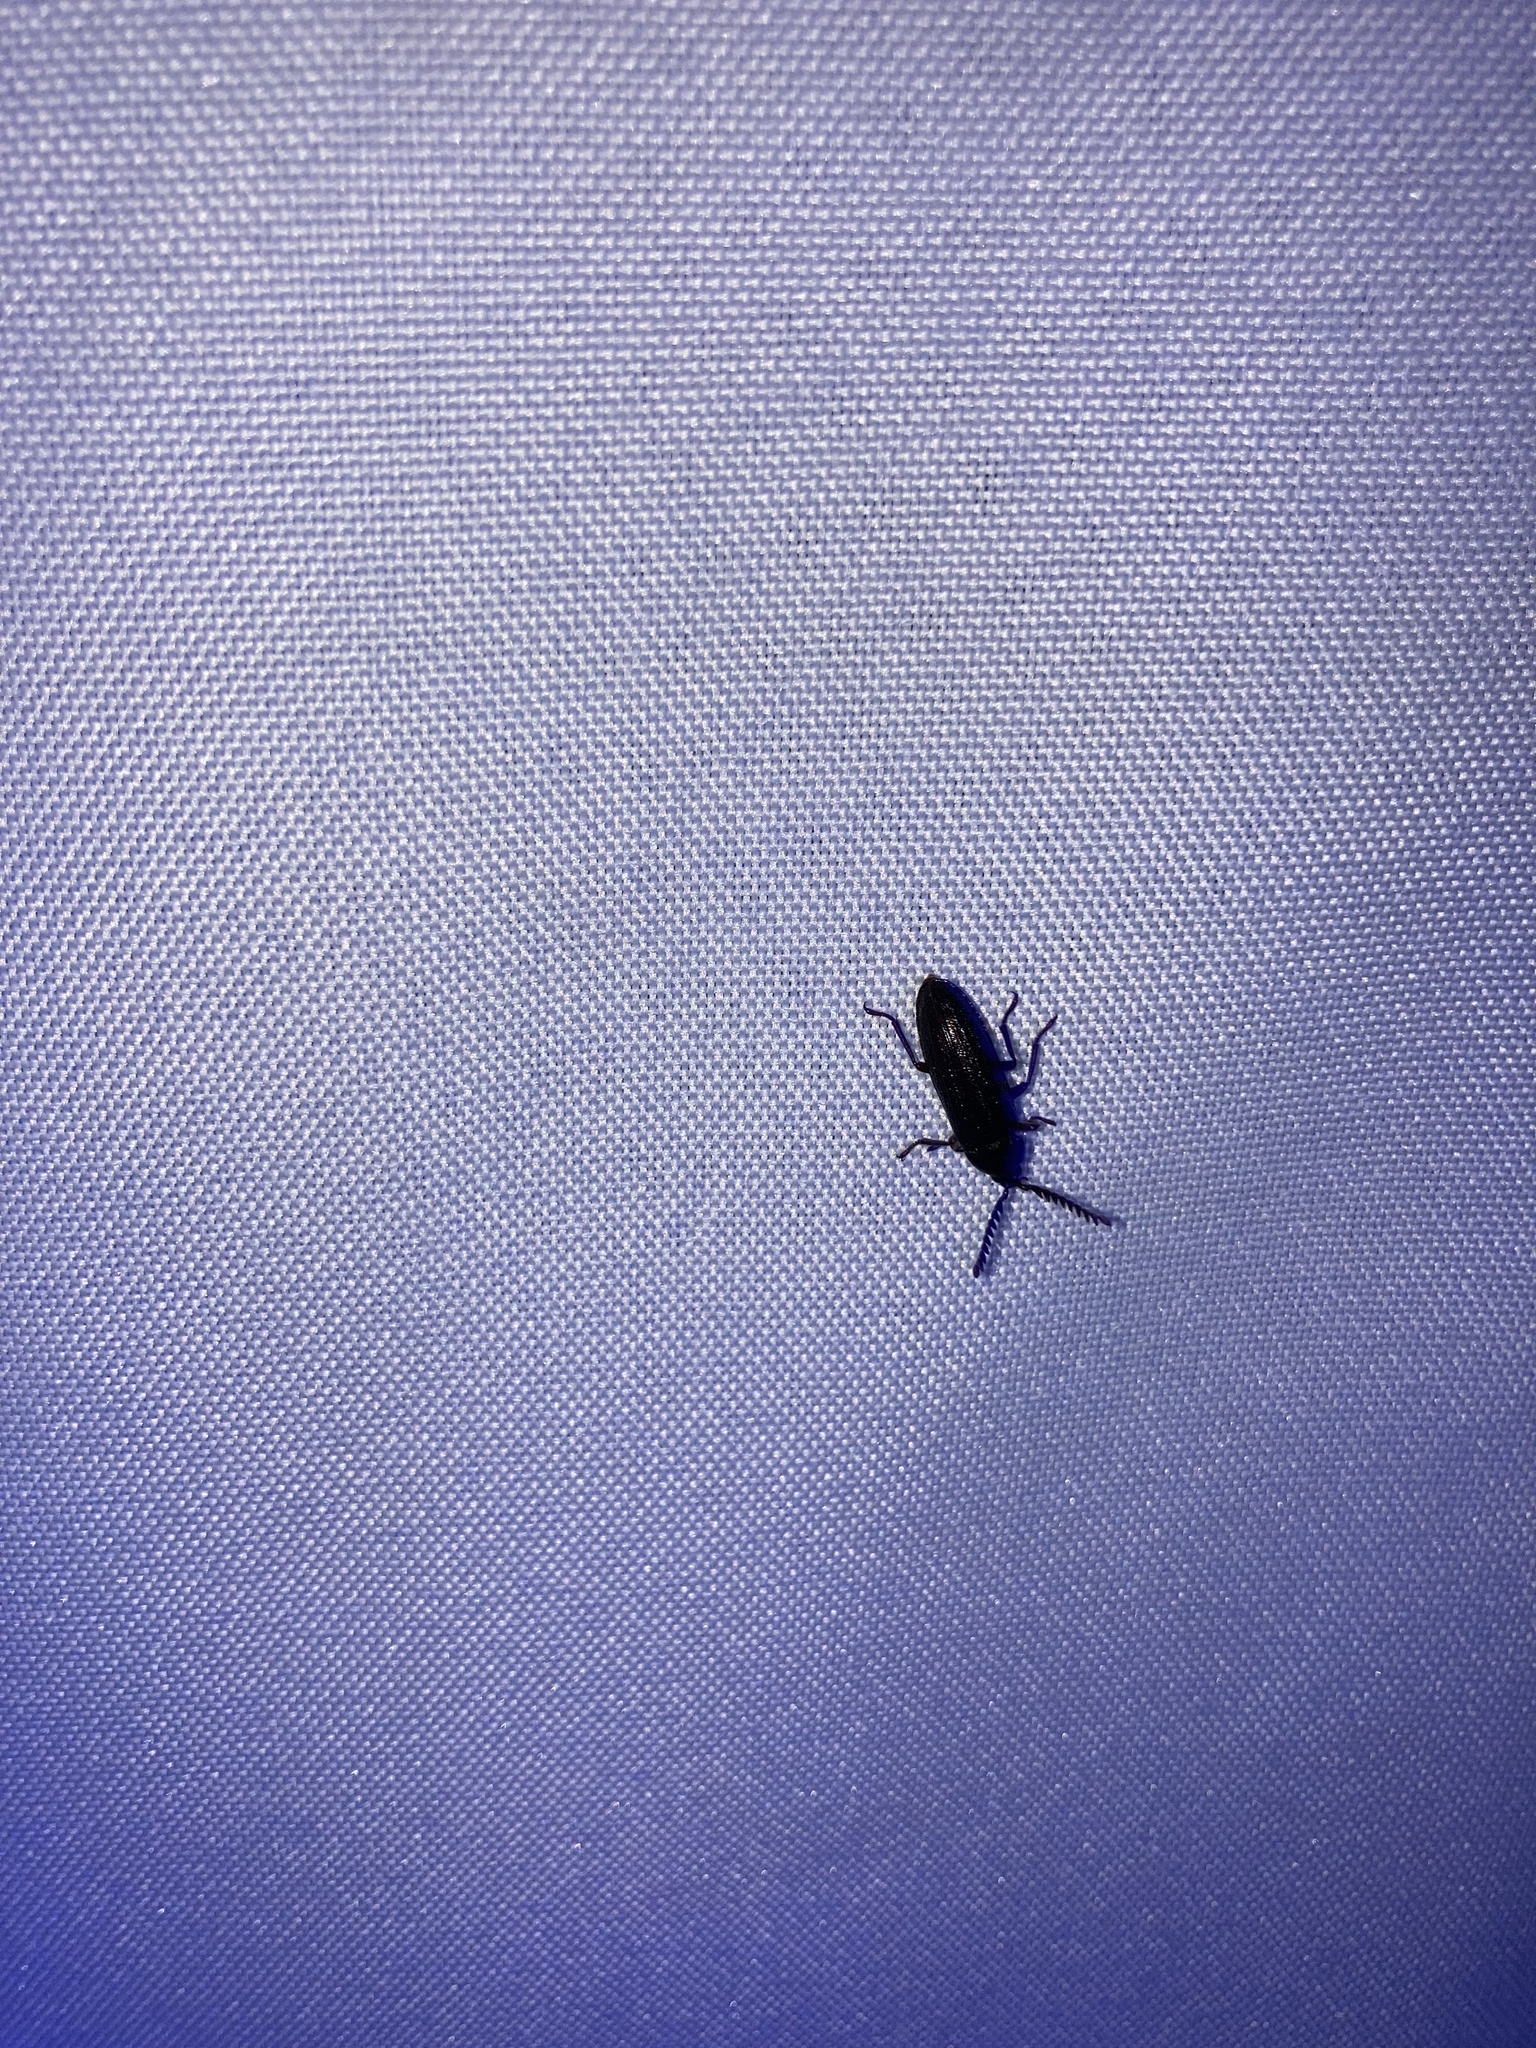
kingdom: Animalia
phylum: Arthropoda
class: Insecta
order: Coleoptera
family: Callirhipidae
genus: Zenoa
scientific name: Zenoa picea
